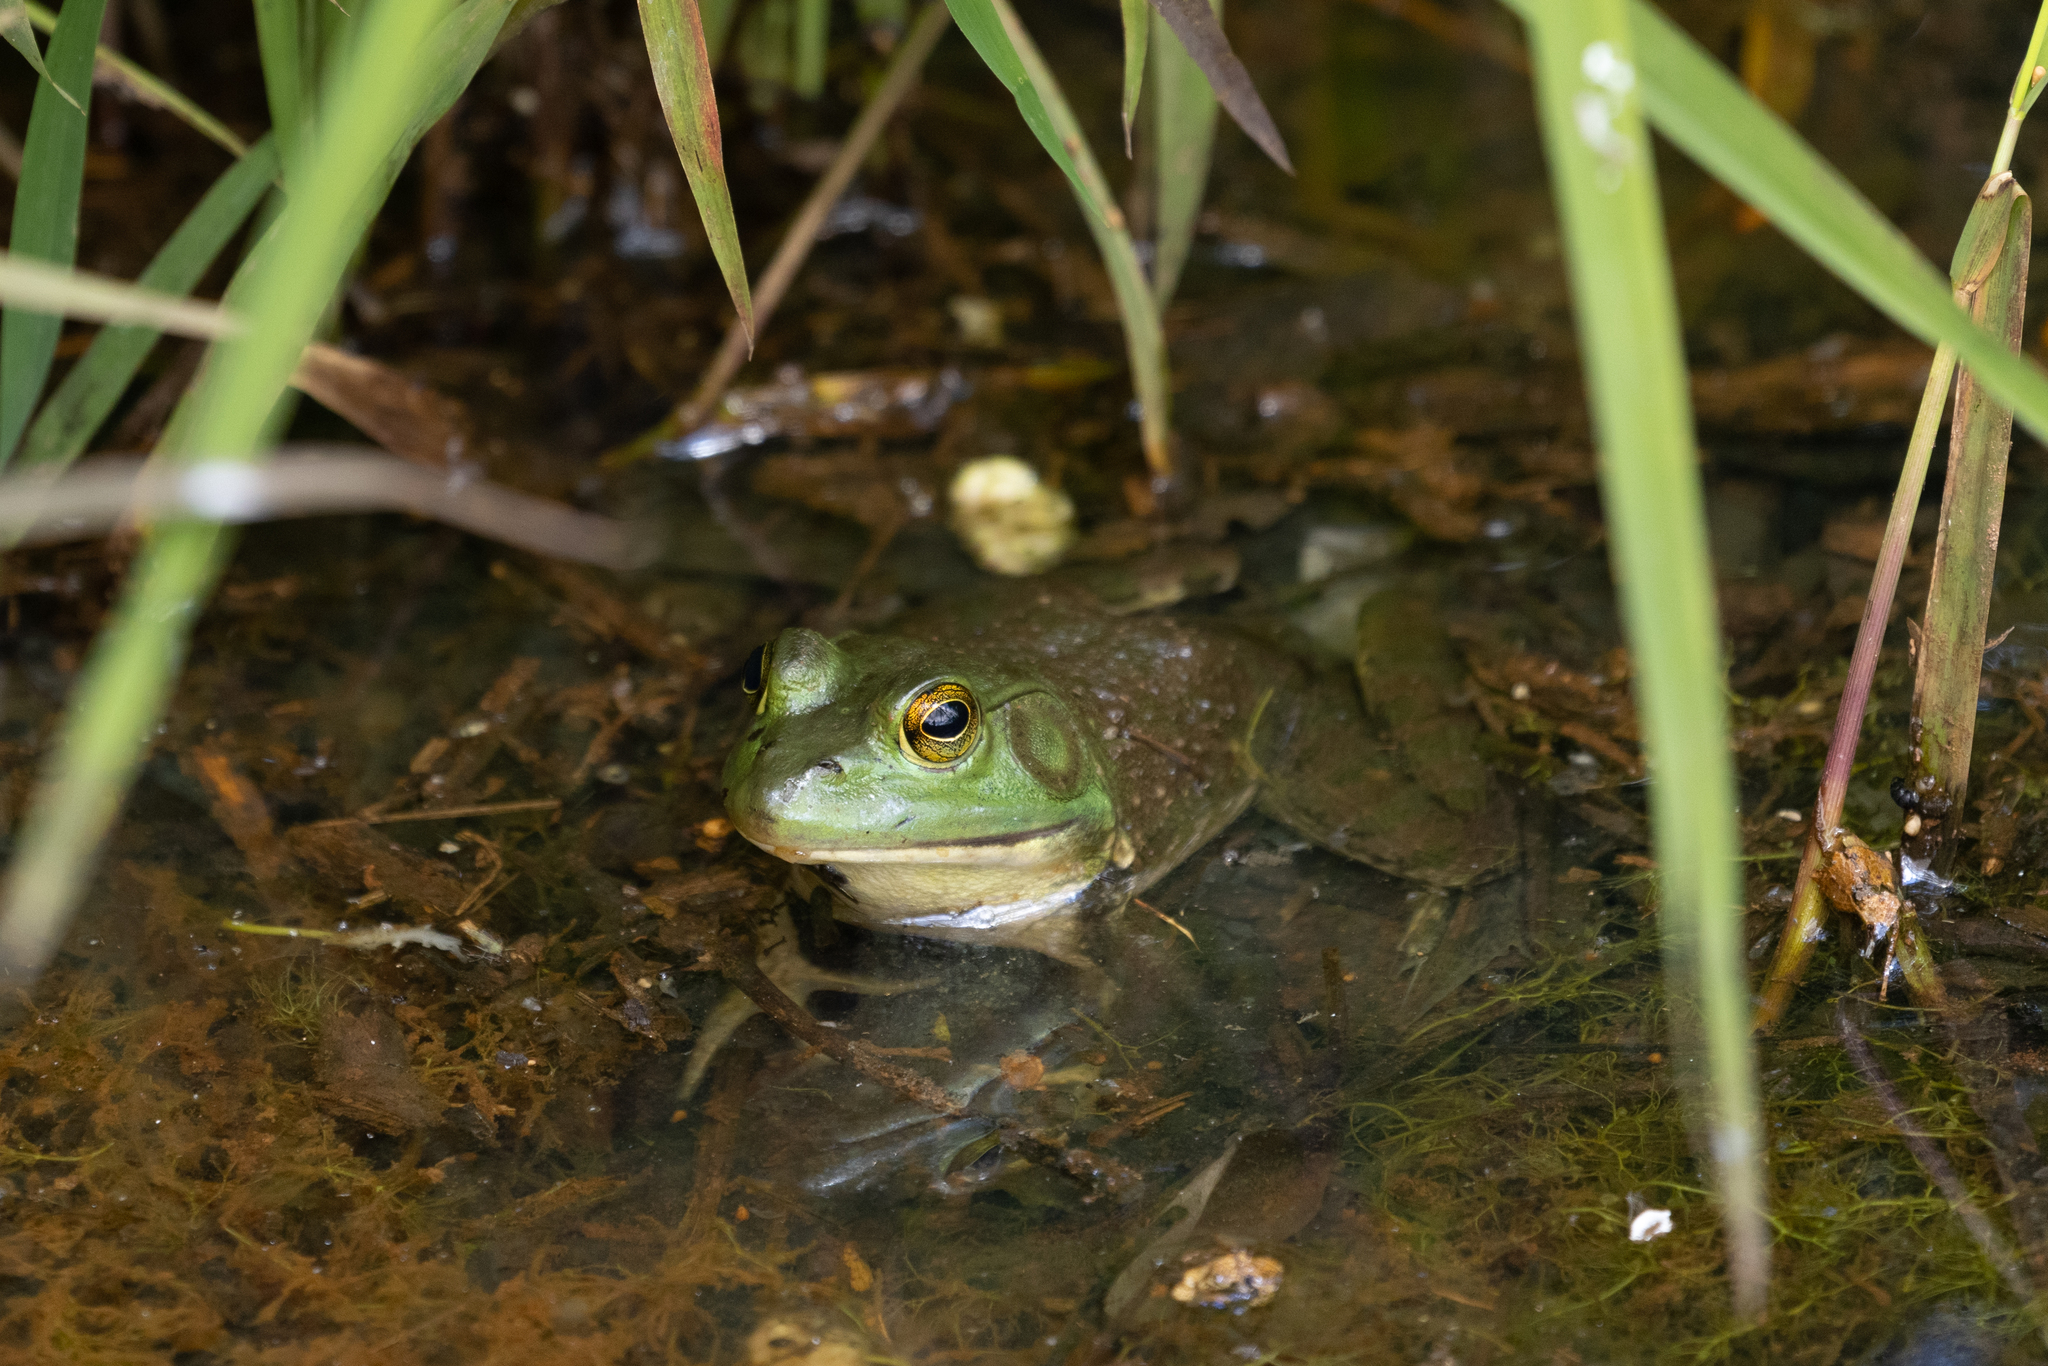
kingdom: Animalia
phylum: Chordata
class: Amphibia
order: Anura
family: Ranidae
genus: Lithobates
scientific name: Lithobates catesbeianus
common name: American bullfrog
